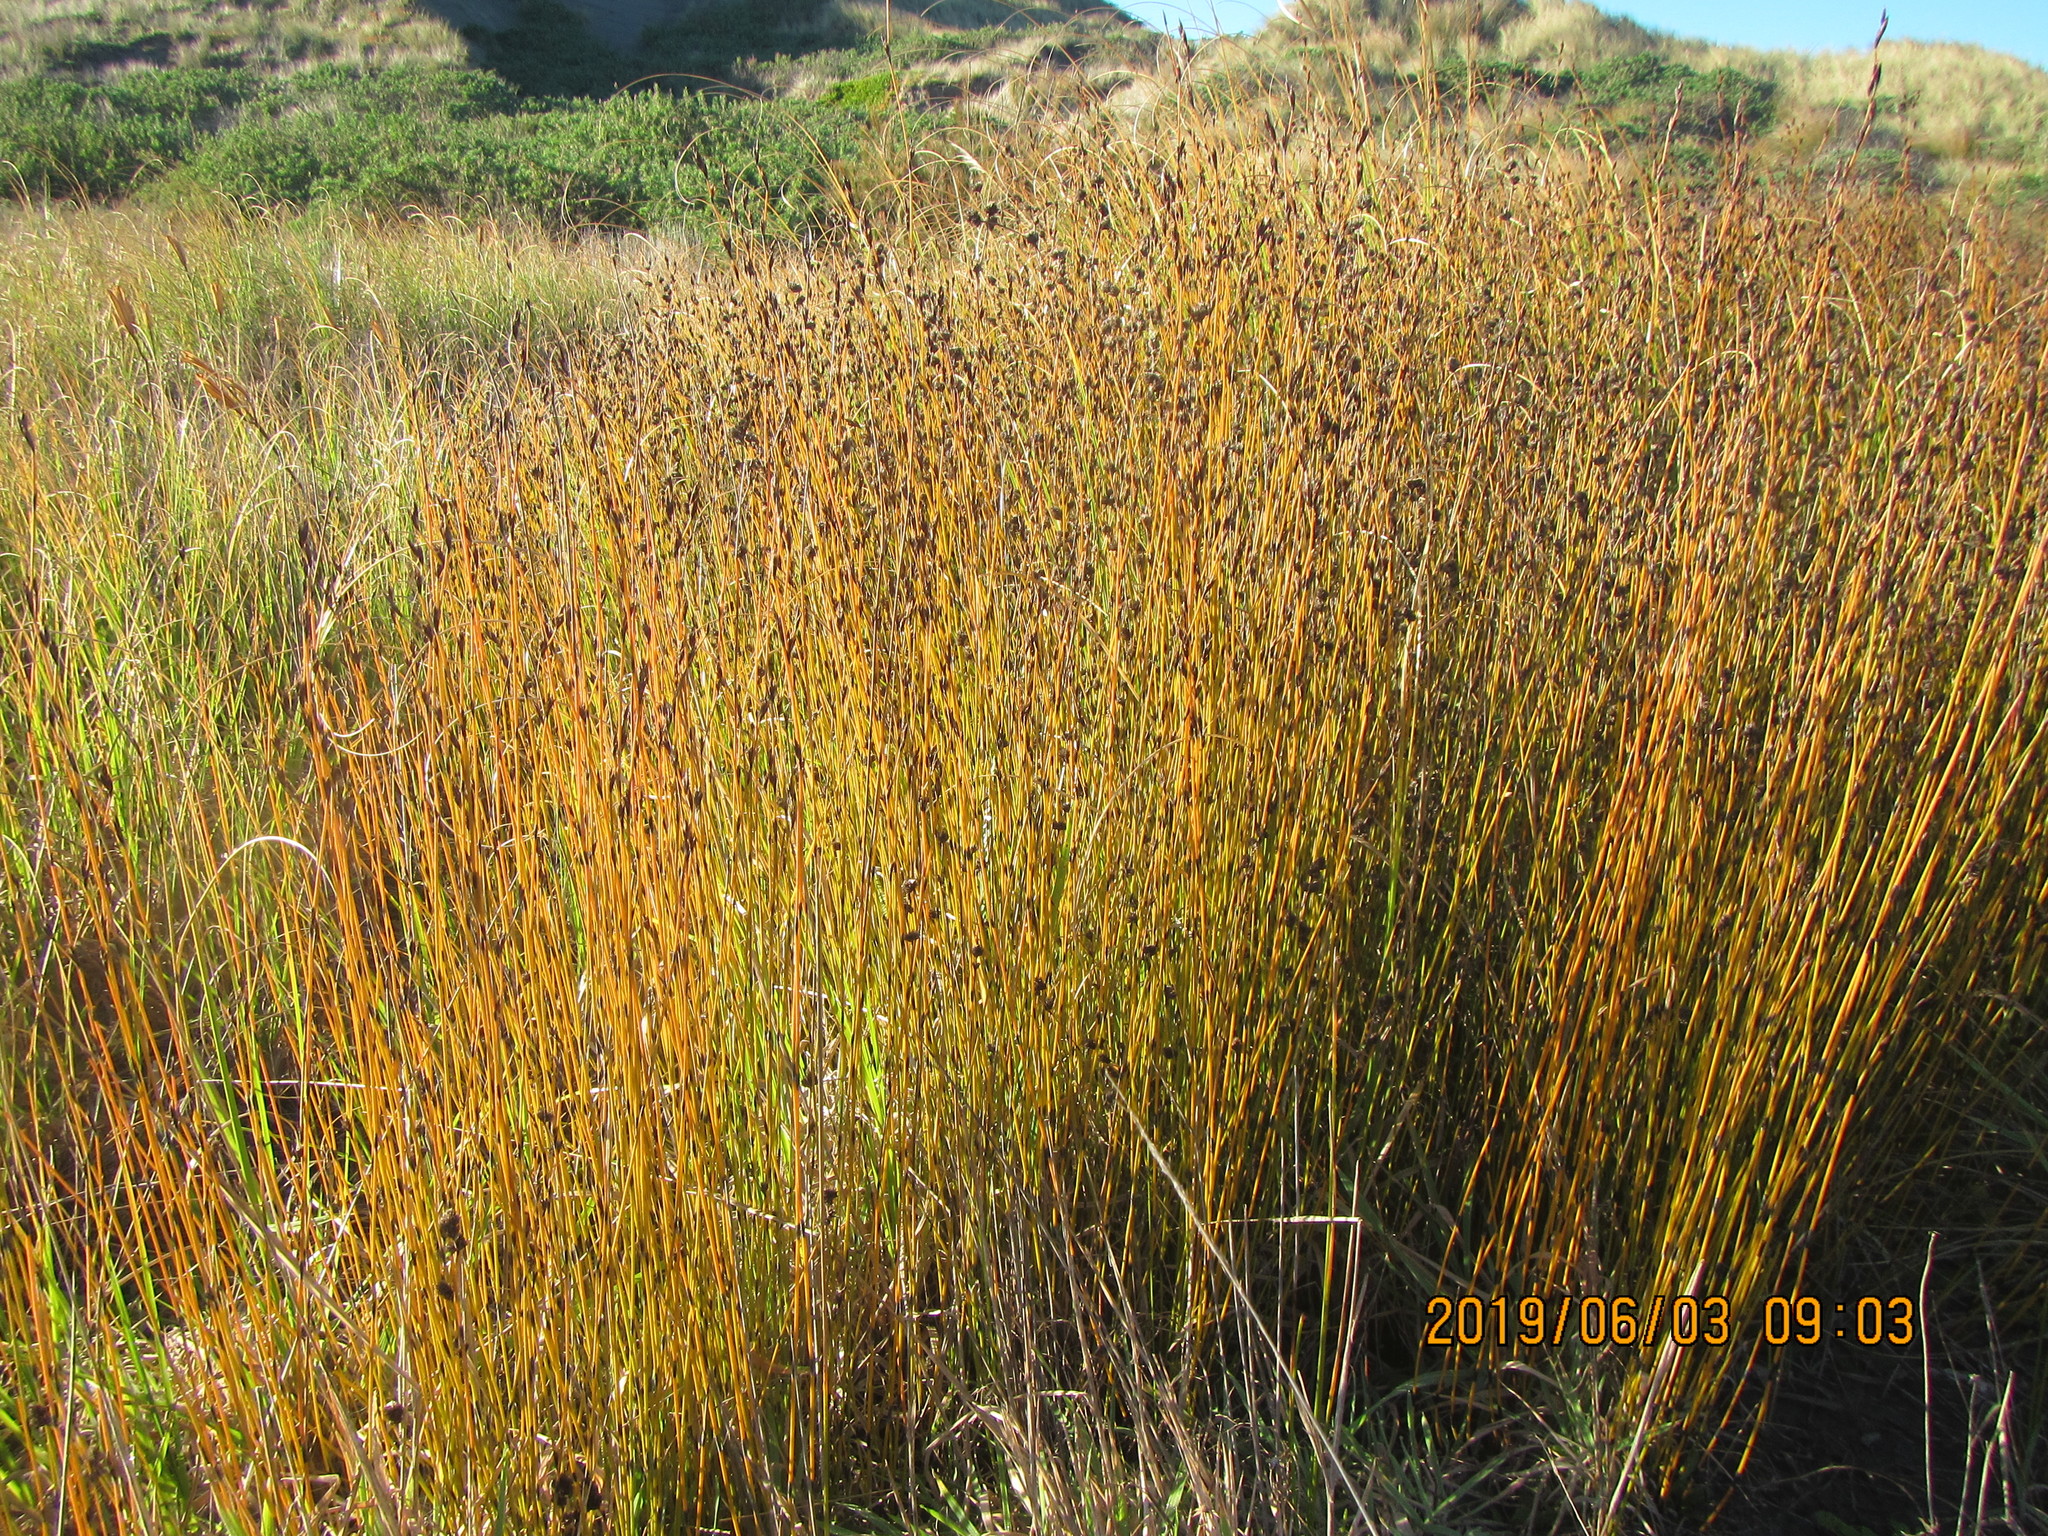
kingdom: Plantae
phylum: Tracheophyta
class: Liliopsida
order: Poales
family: Restionaceae
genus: Apodasmia
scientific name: Apodasmia similis
